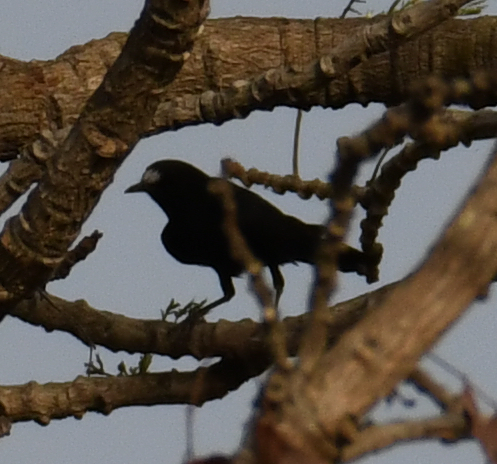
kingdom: Animalia
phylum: Chordata
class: Aves
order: Passeriformes
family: Muscicapidae
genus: Pentholaea
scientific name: Pentholaea albifrons
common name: White-fronted black chat
